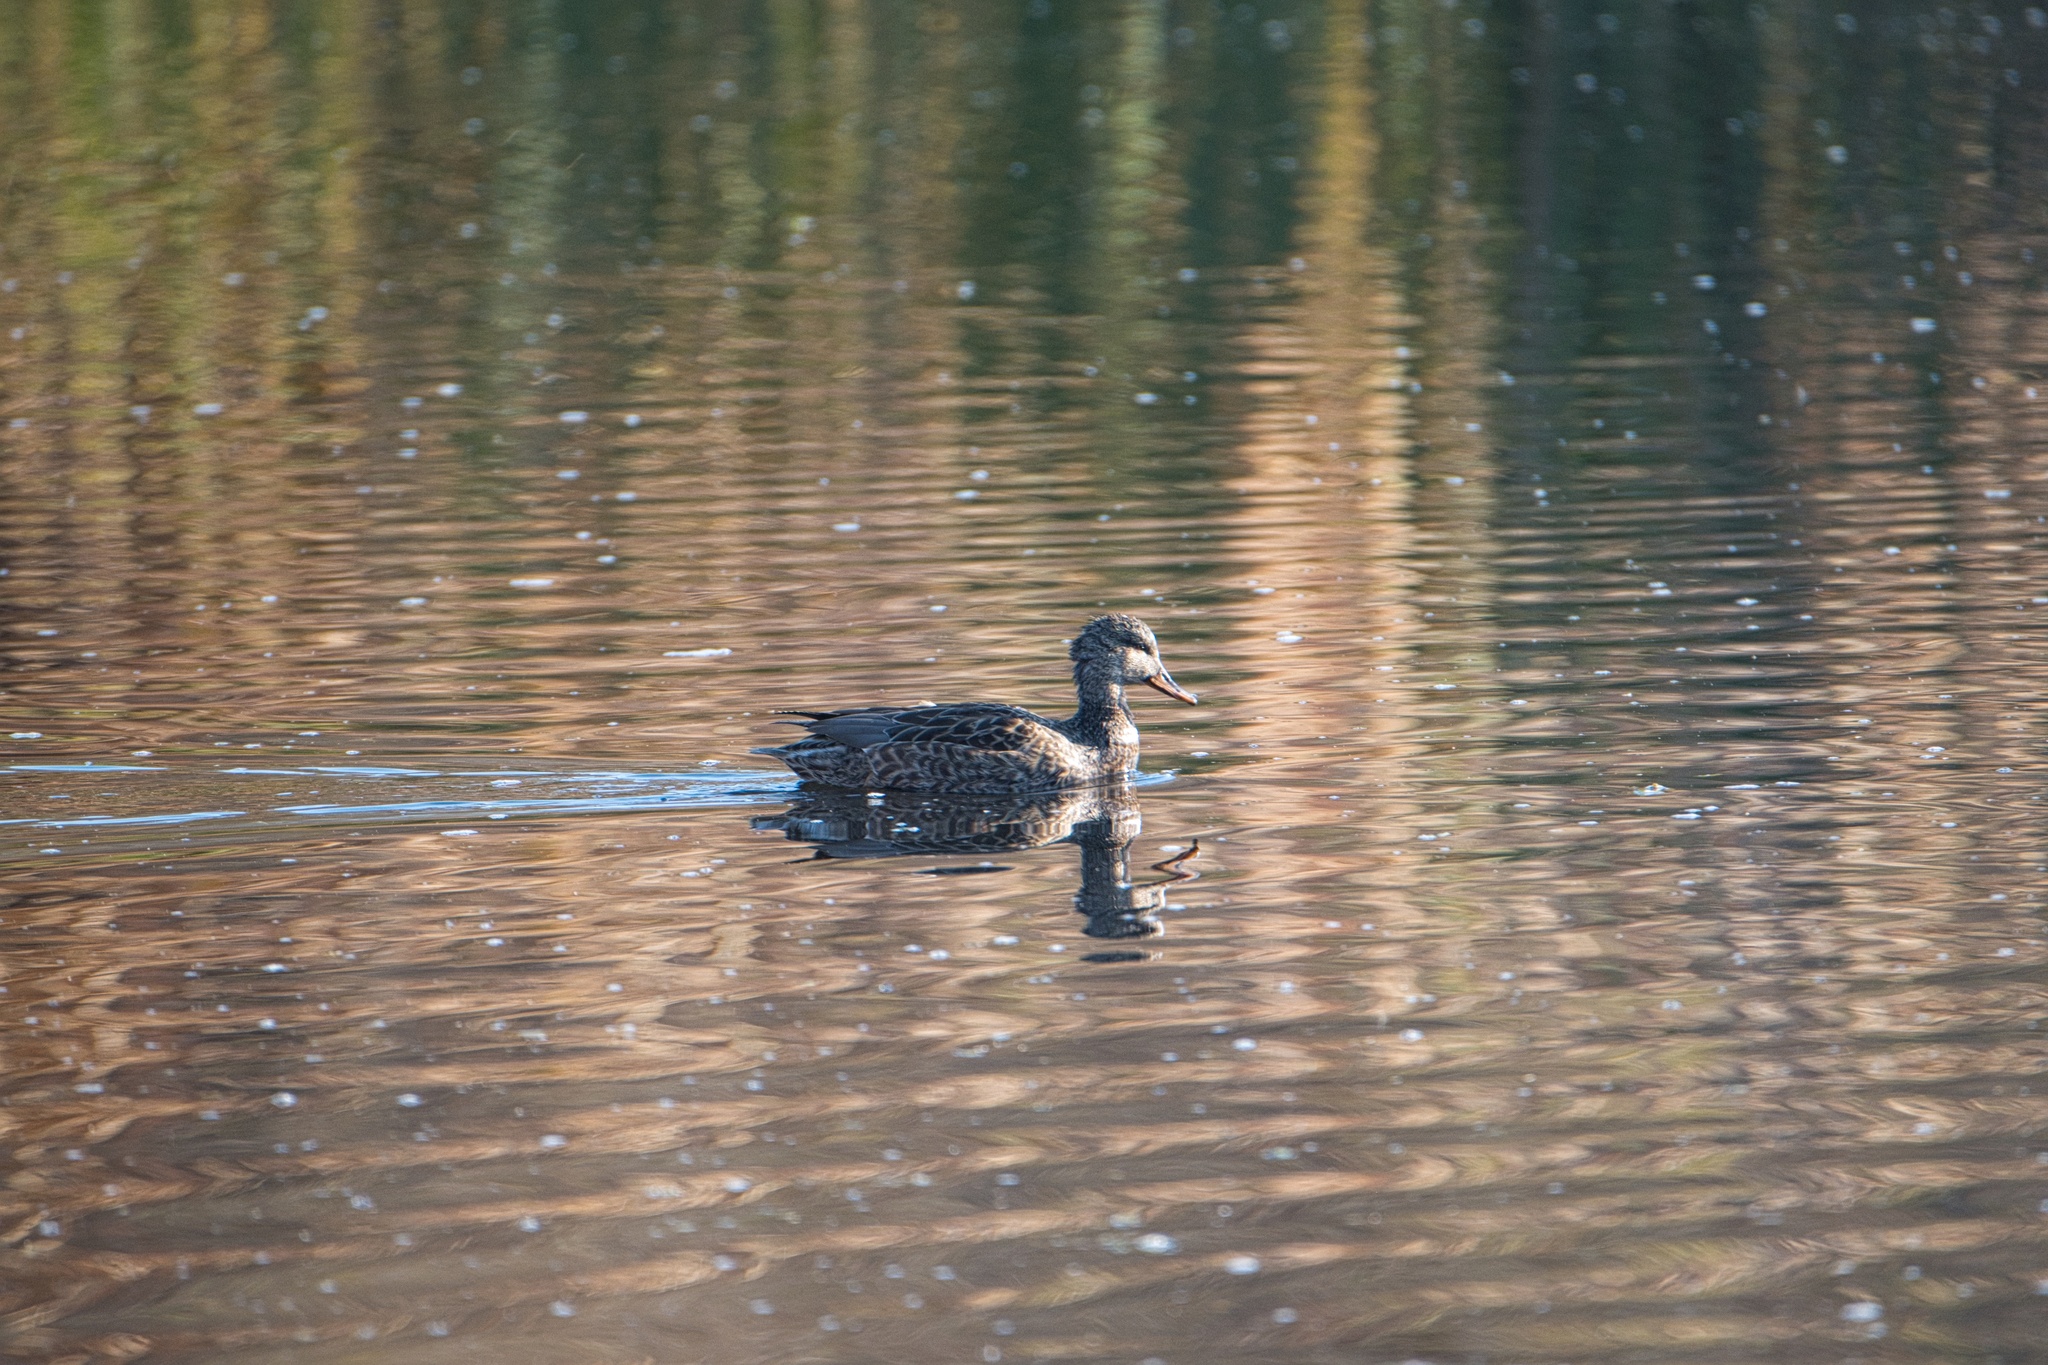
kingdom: Animalia
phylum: Chordata
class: Aves
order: Anseriformes
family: Anatidae
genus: Mareca
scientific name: Mareca strepera
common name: Gadwall
